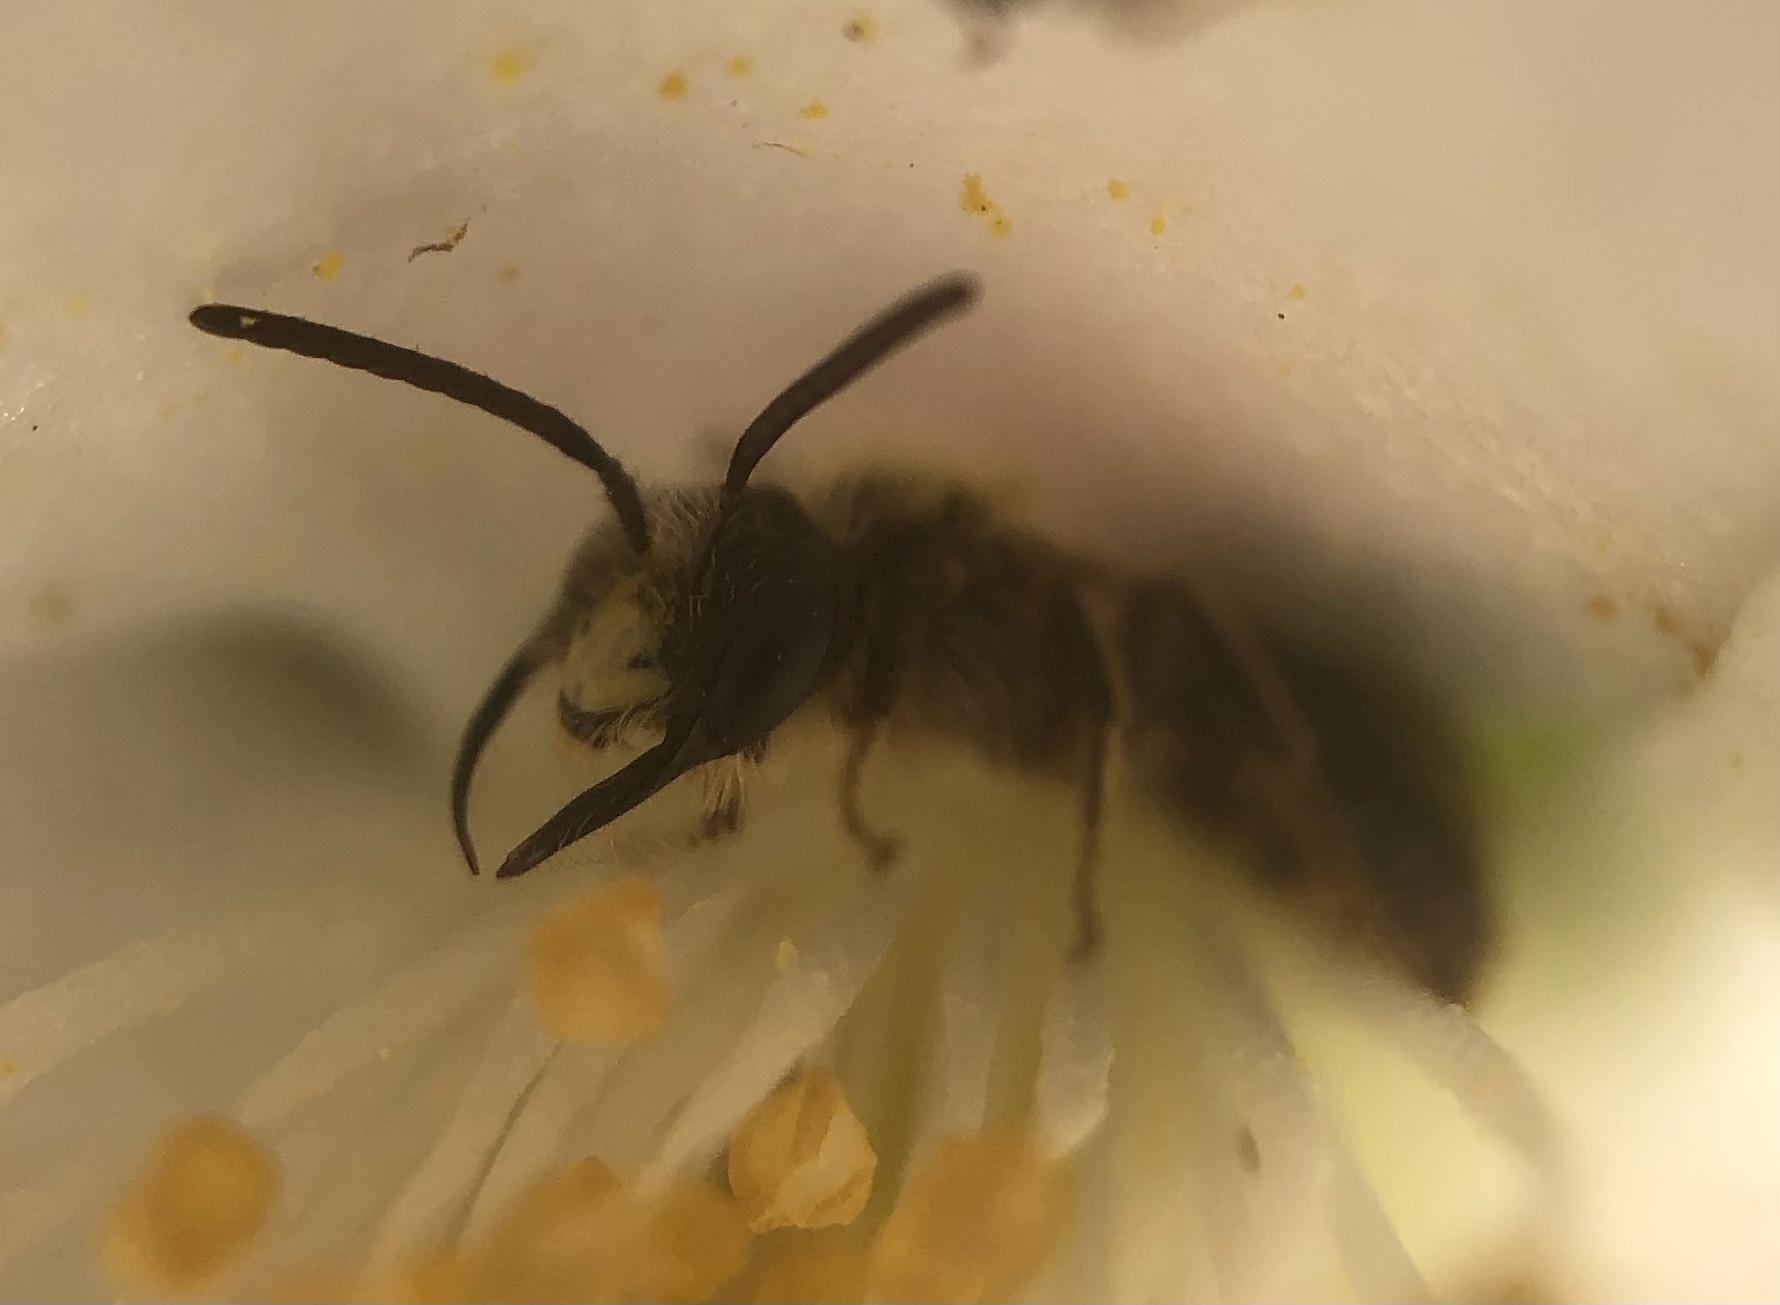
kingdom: Animalia
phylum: Arthropoda
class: Insecta
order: Hymenoptera
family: Andrenidae
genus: Andrena
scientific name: Andrena cerebrata
